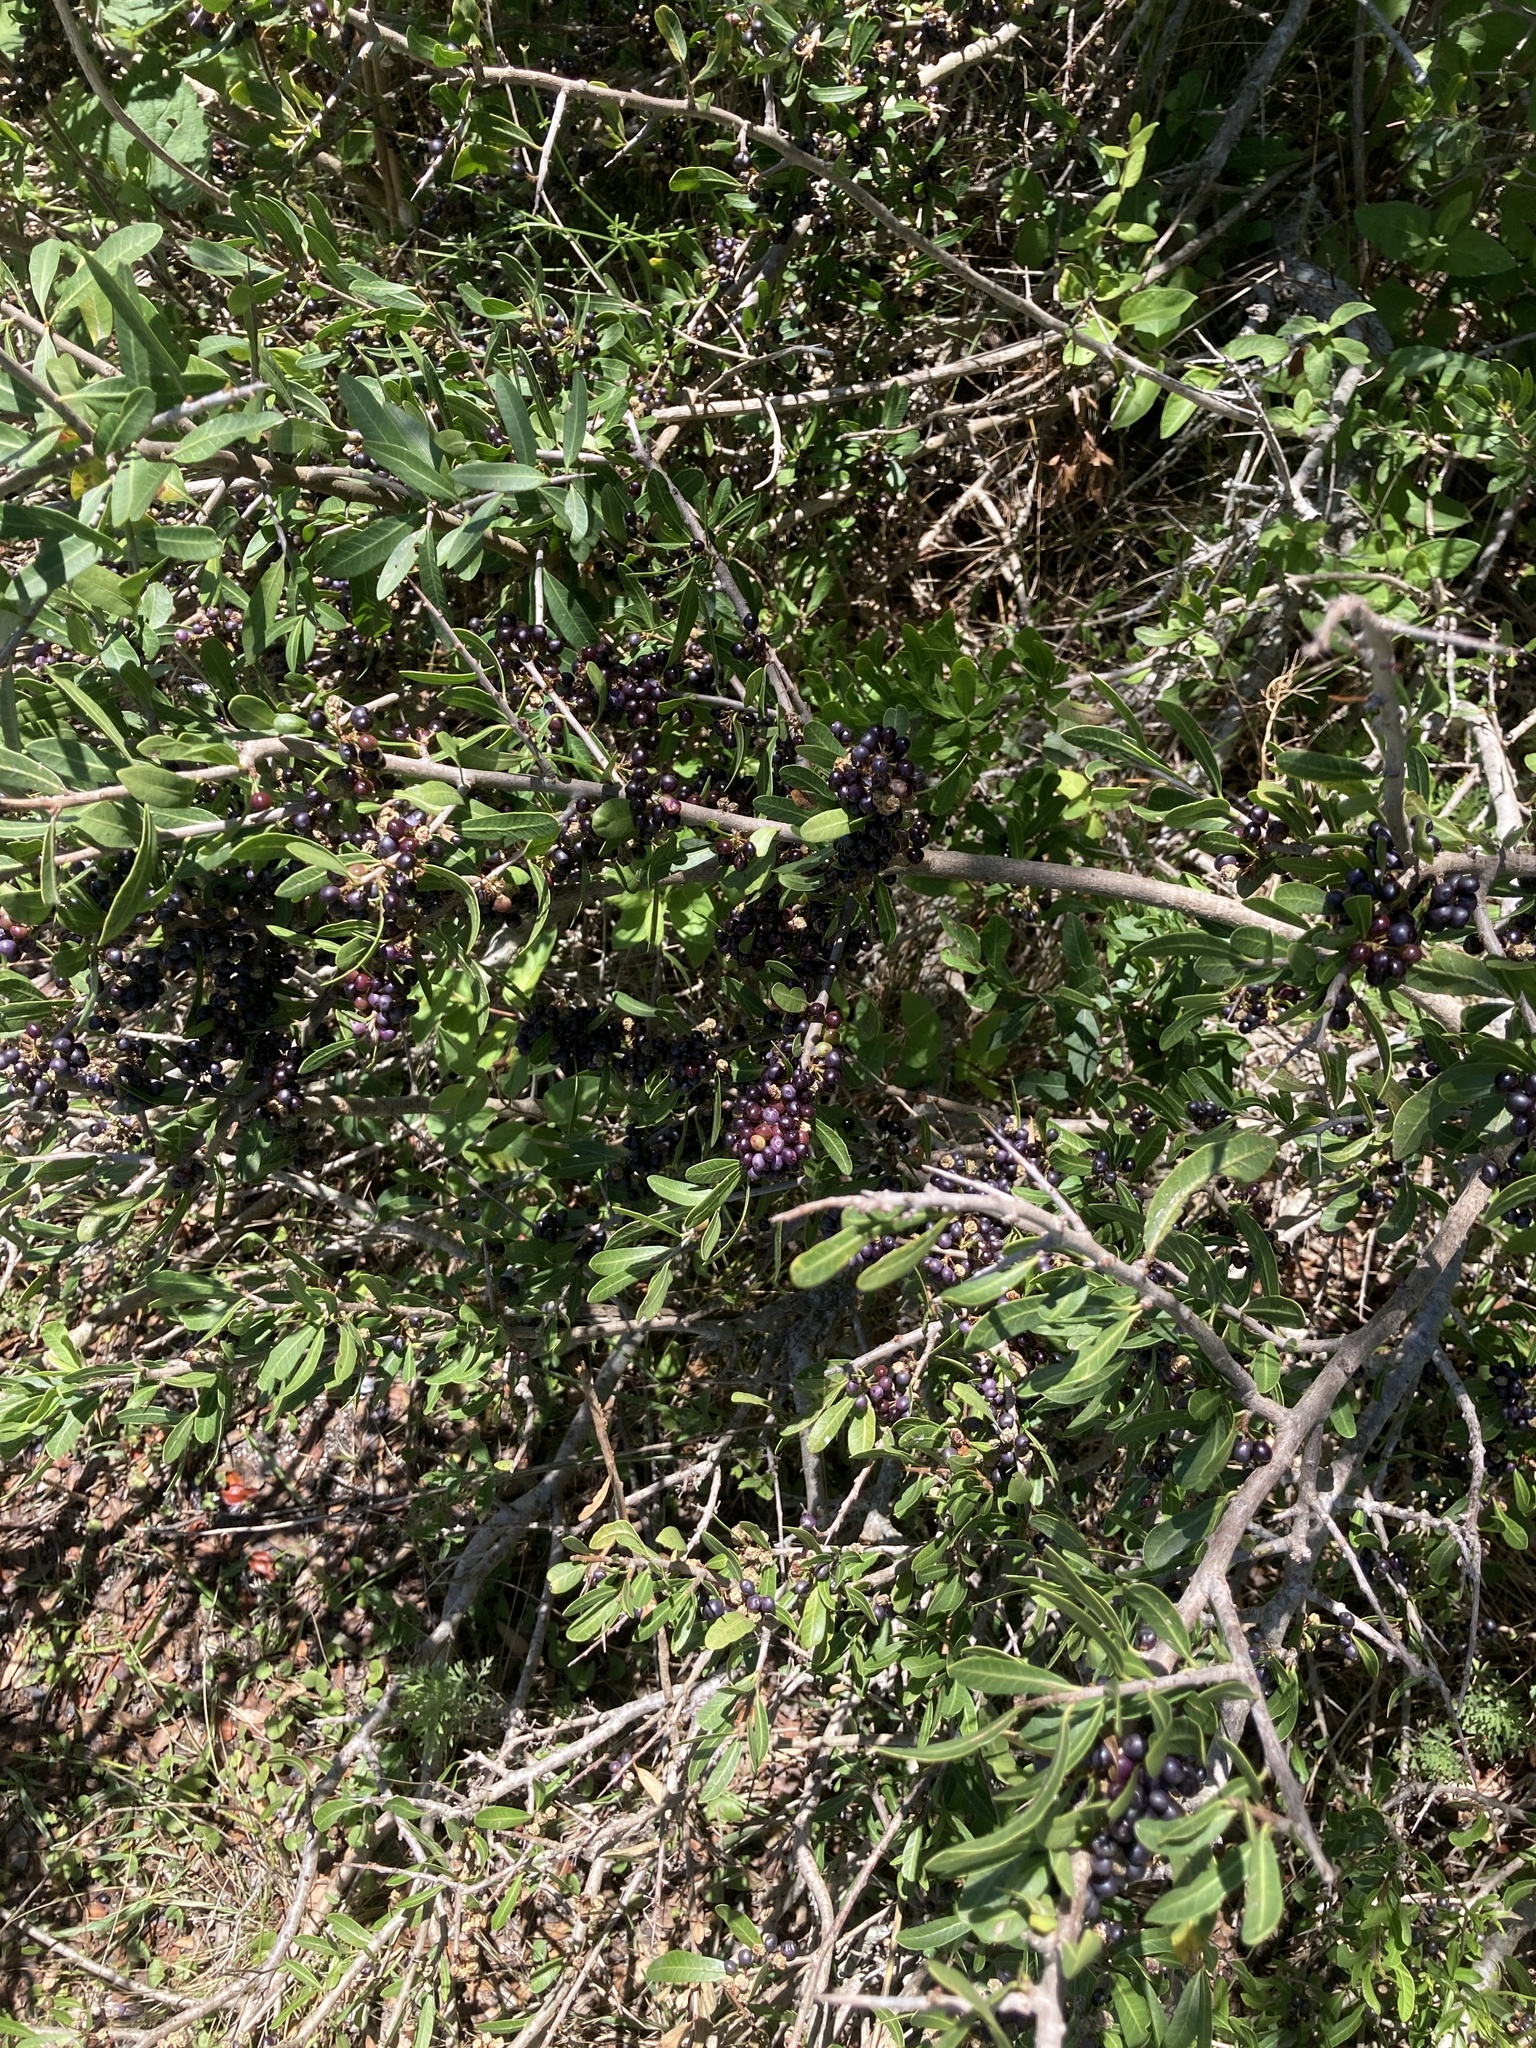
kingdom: Plantae
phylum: Tracheophyta
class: Magnoliopsida
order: Sapindales
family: Anacardiaceae
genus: Schinus
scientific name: Schinus longifolia
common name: Longleaf peppertree
